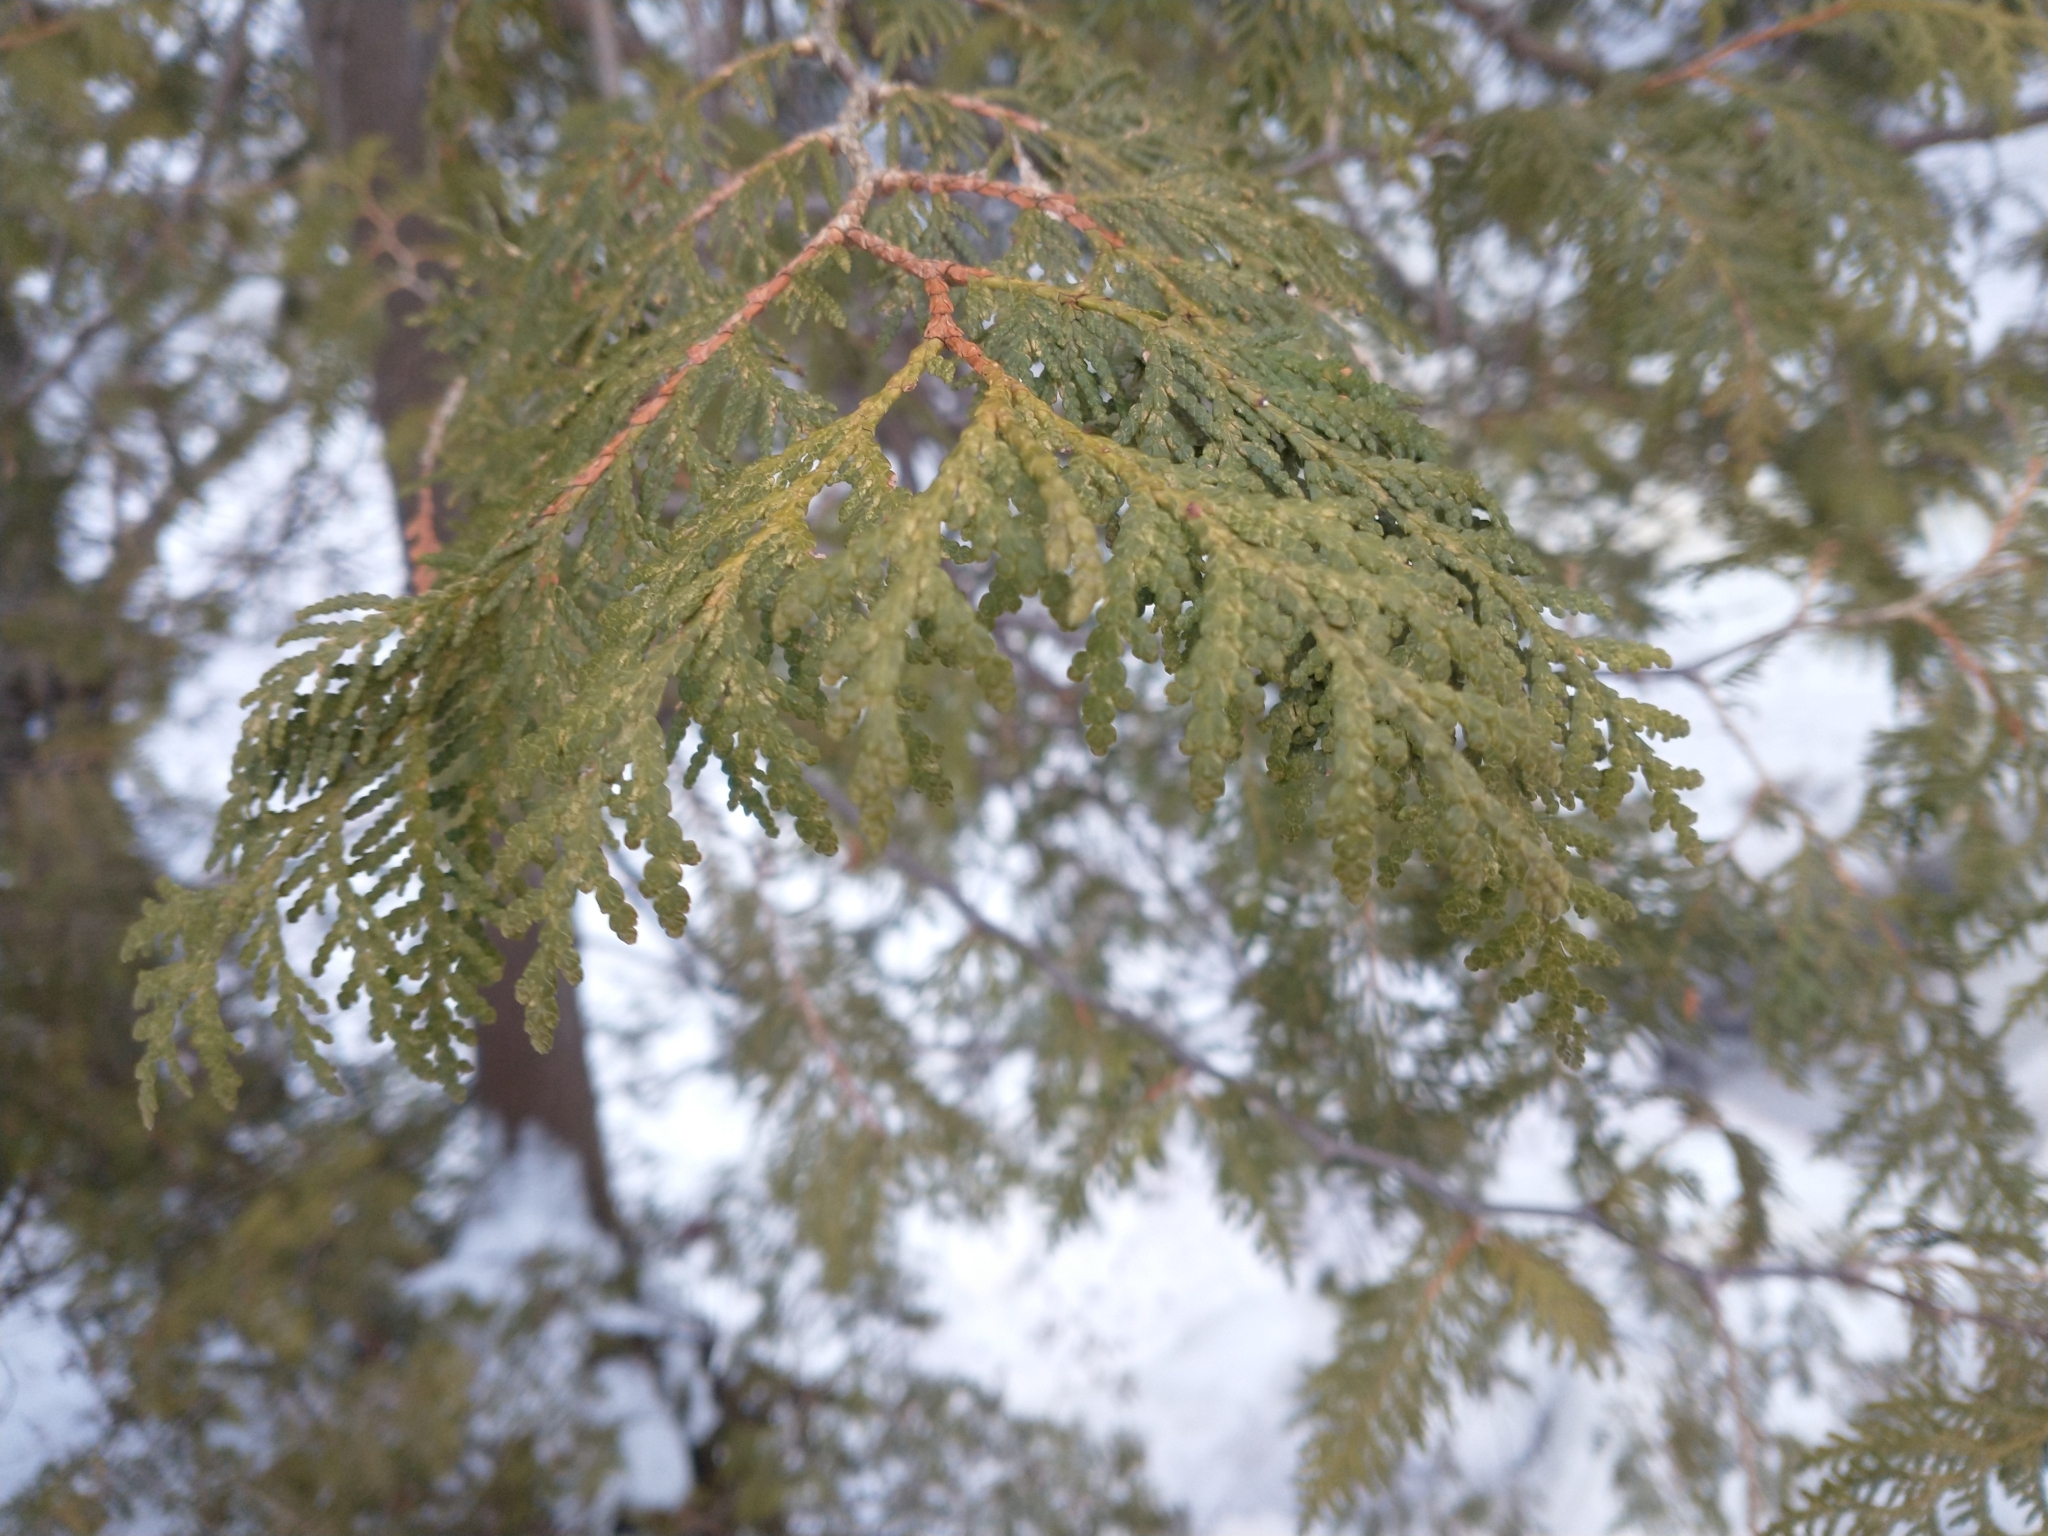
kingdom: Plantae
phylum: Tracheophyta
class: Pinopsida
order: Pinales
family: Cupressaceae
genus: Thuja
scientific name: Thuja occidentalis
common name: Northern white-cedar
